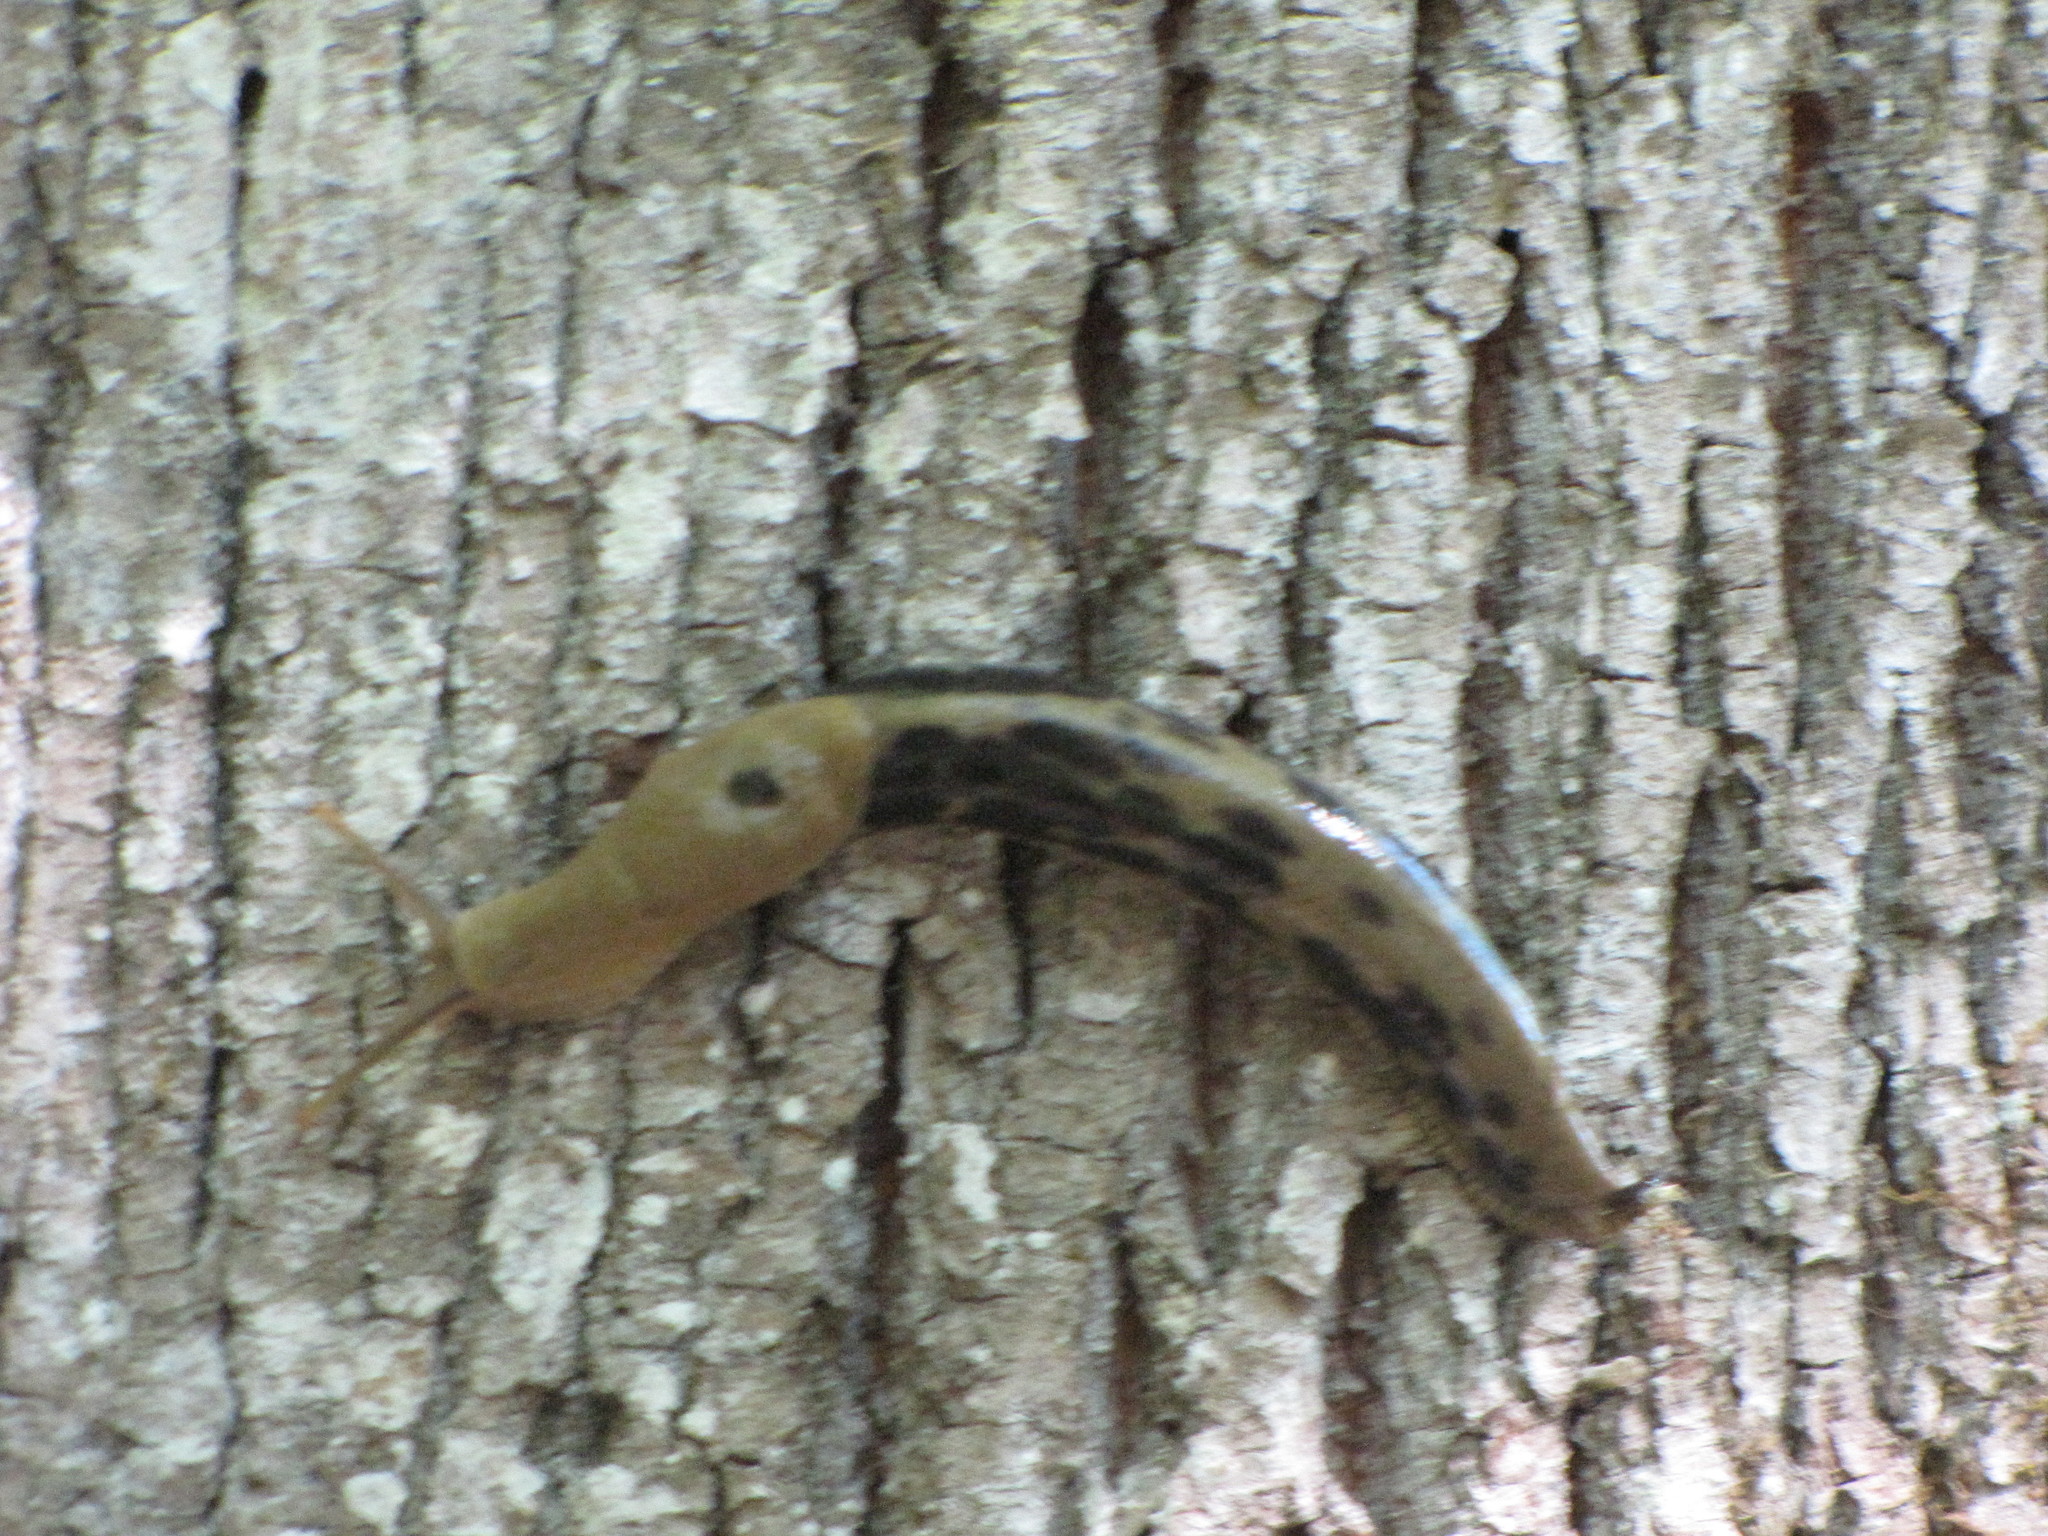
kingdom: Animalia
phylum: Mollusca
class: Gastropoda
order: Stylommatophora
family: Ariolimacidae
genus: Ariolimax
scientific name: Ariolimax columbianus
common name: Pacific banana slug
